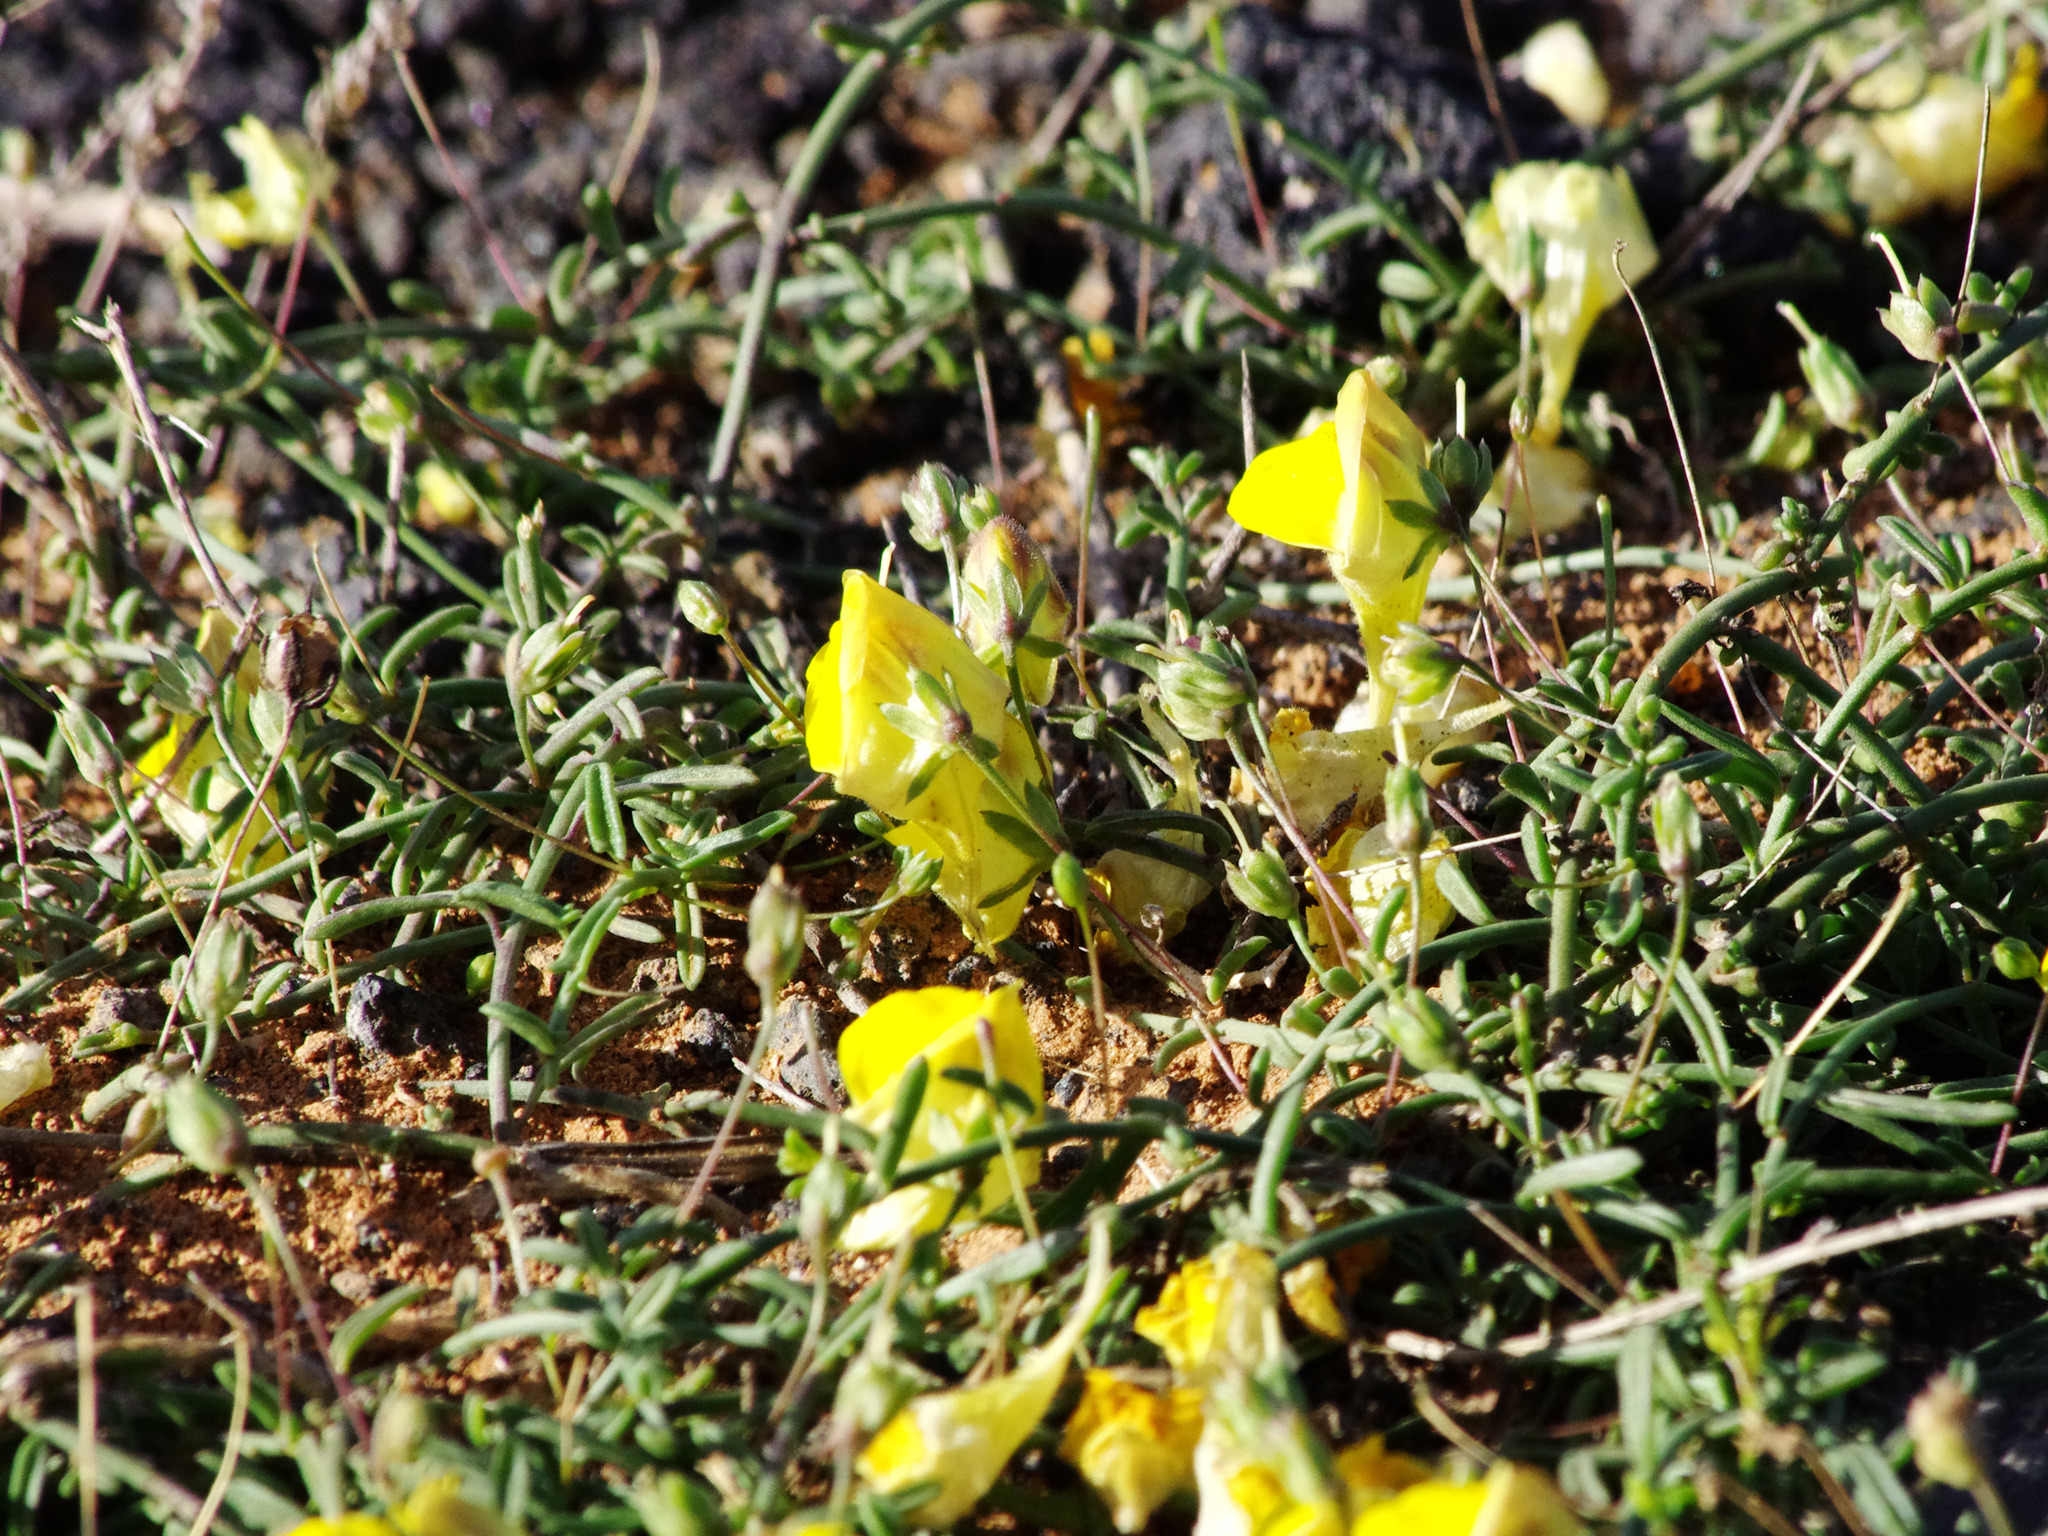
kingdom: Plantae
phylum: Tracheophyta
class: Magnoliopsida
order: Lamiales
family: Plantaginaceae
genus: Nanorrhinum
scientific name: Nanorrhinum heterophyllum
